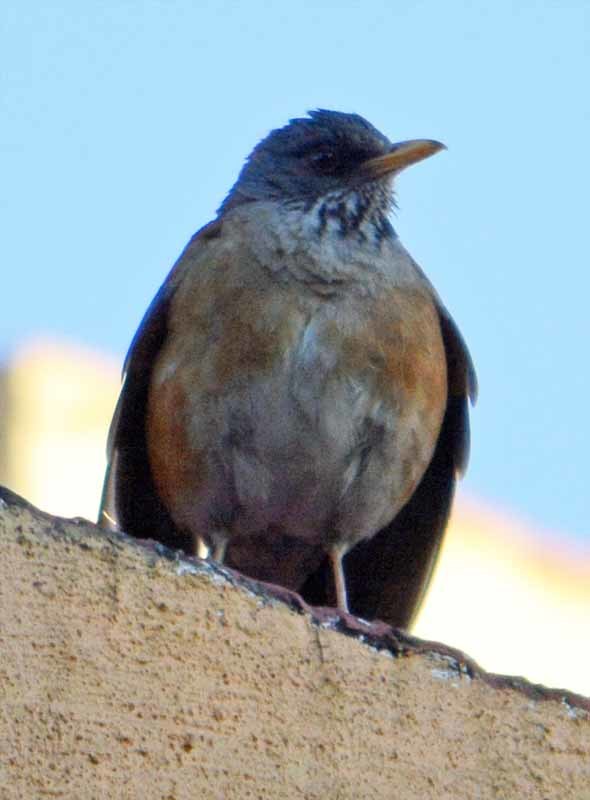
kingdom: Animalia
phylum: Chordata
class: Aves
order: Passeriformes
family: Turdidae
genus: Turdus
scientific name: Turdus rufopalliatus
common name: Rufous-backed robin
